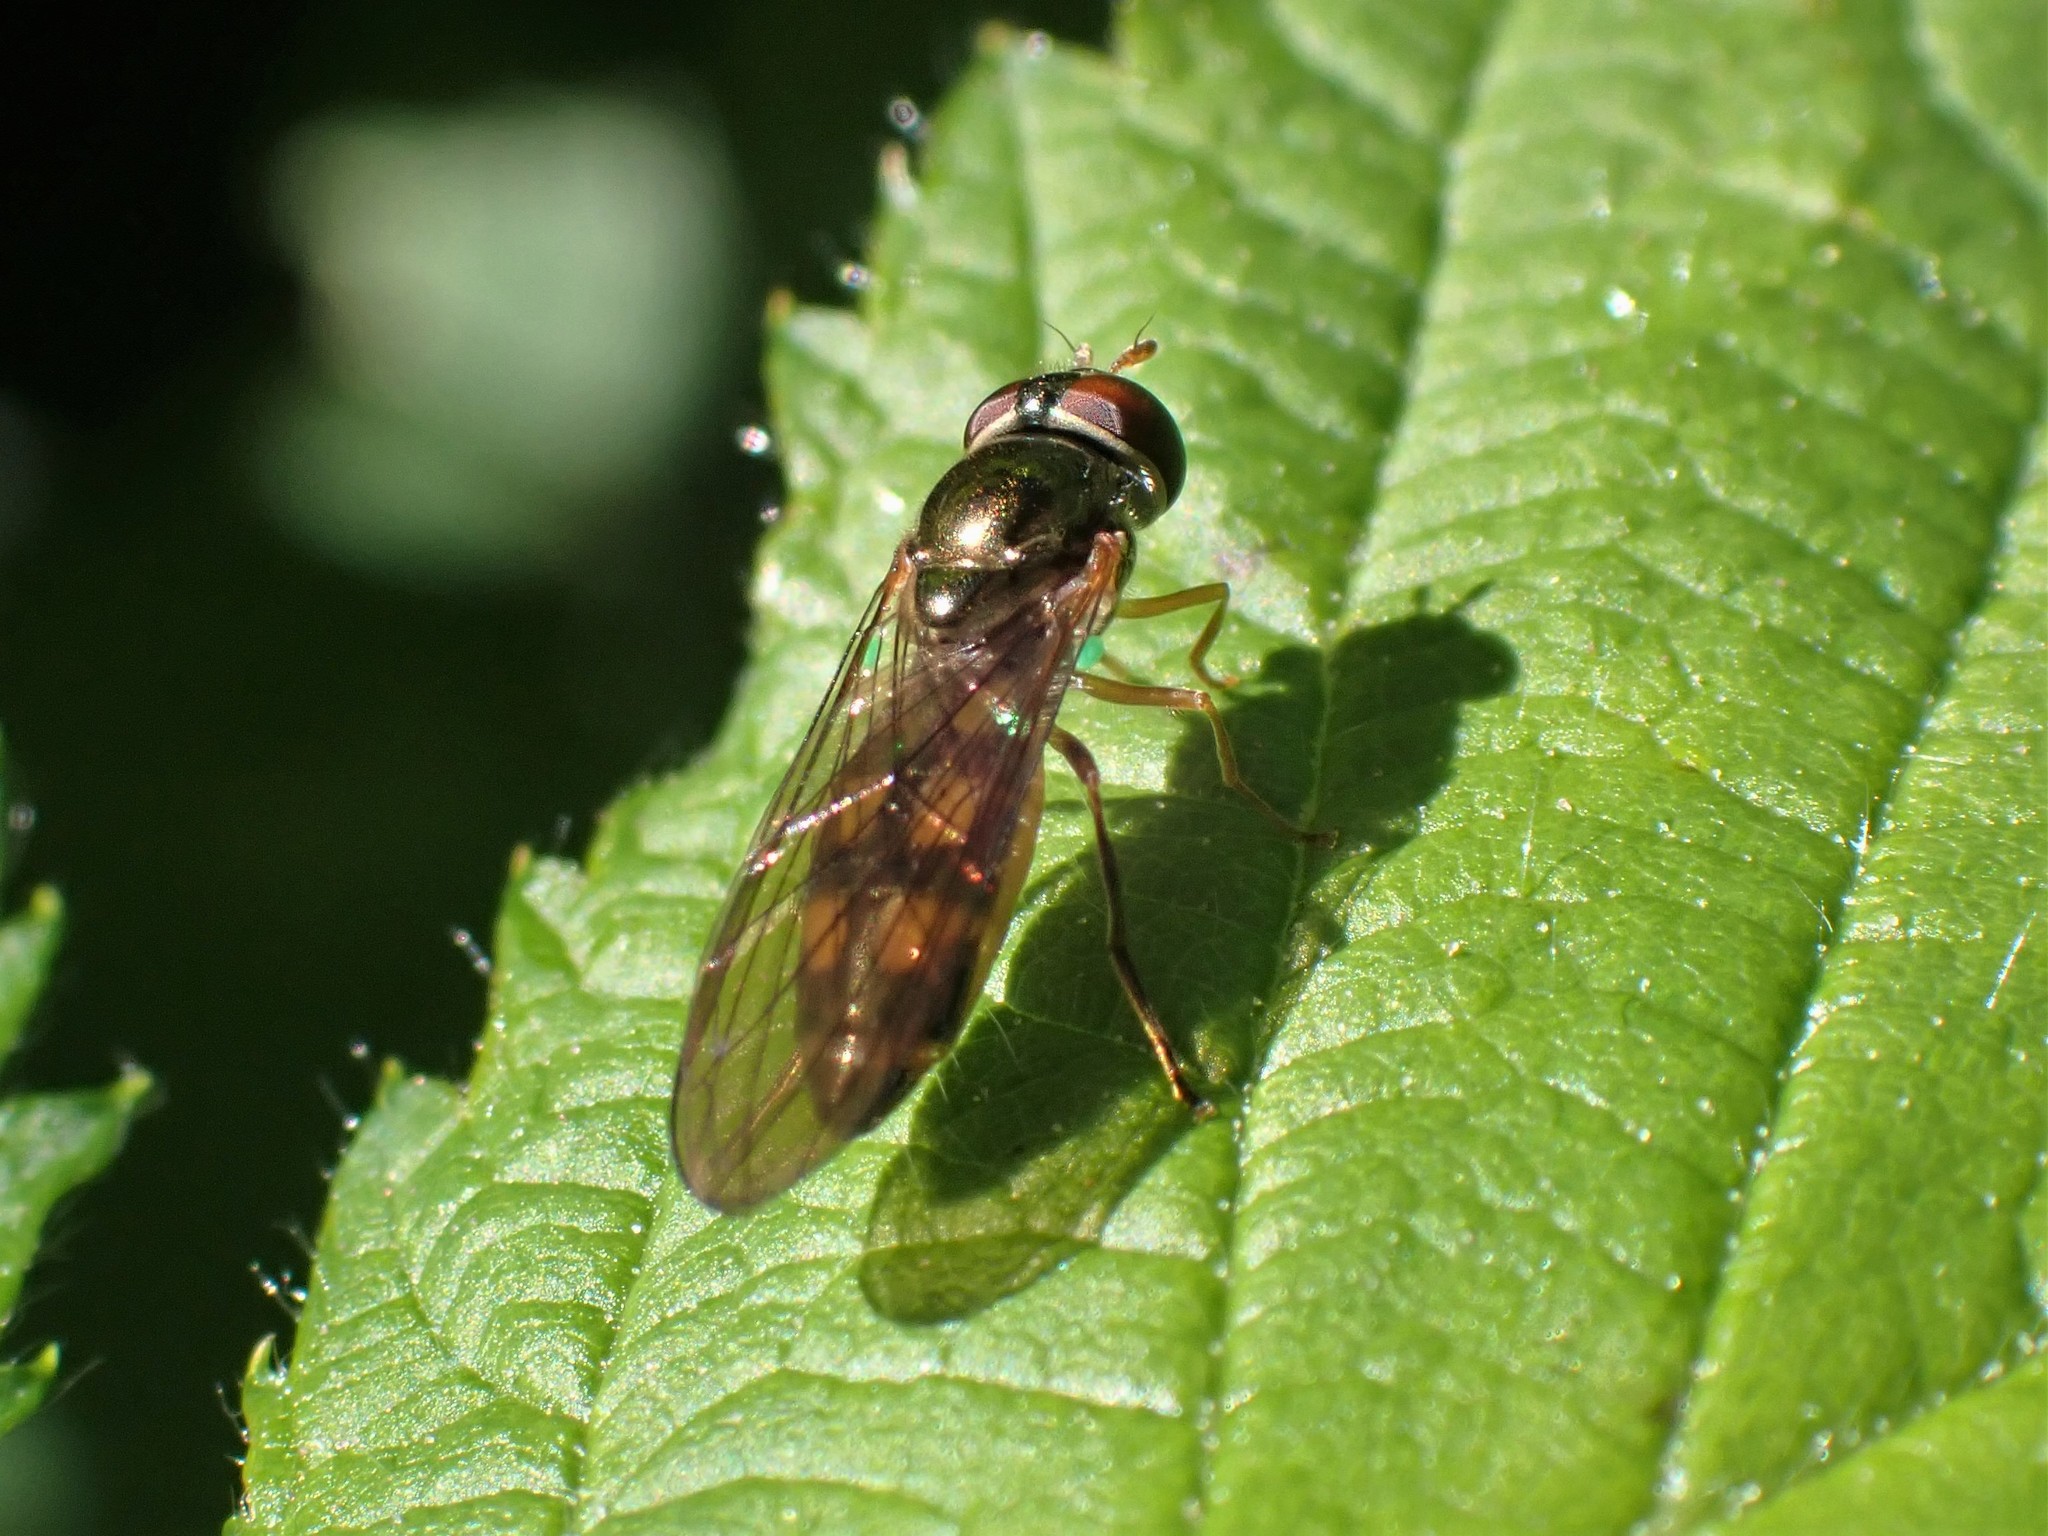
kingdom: Animalia
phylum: Arthropoda
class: Insecta
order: Diptera
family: Syrphidae
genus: Melanostoma
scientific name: Melanostoma mellina
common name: Hover fly
